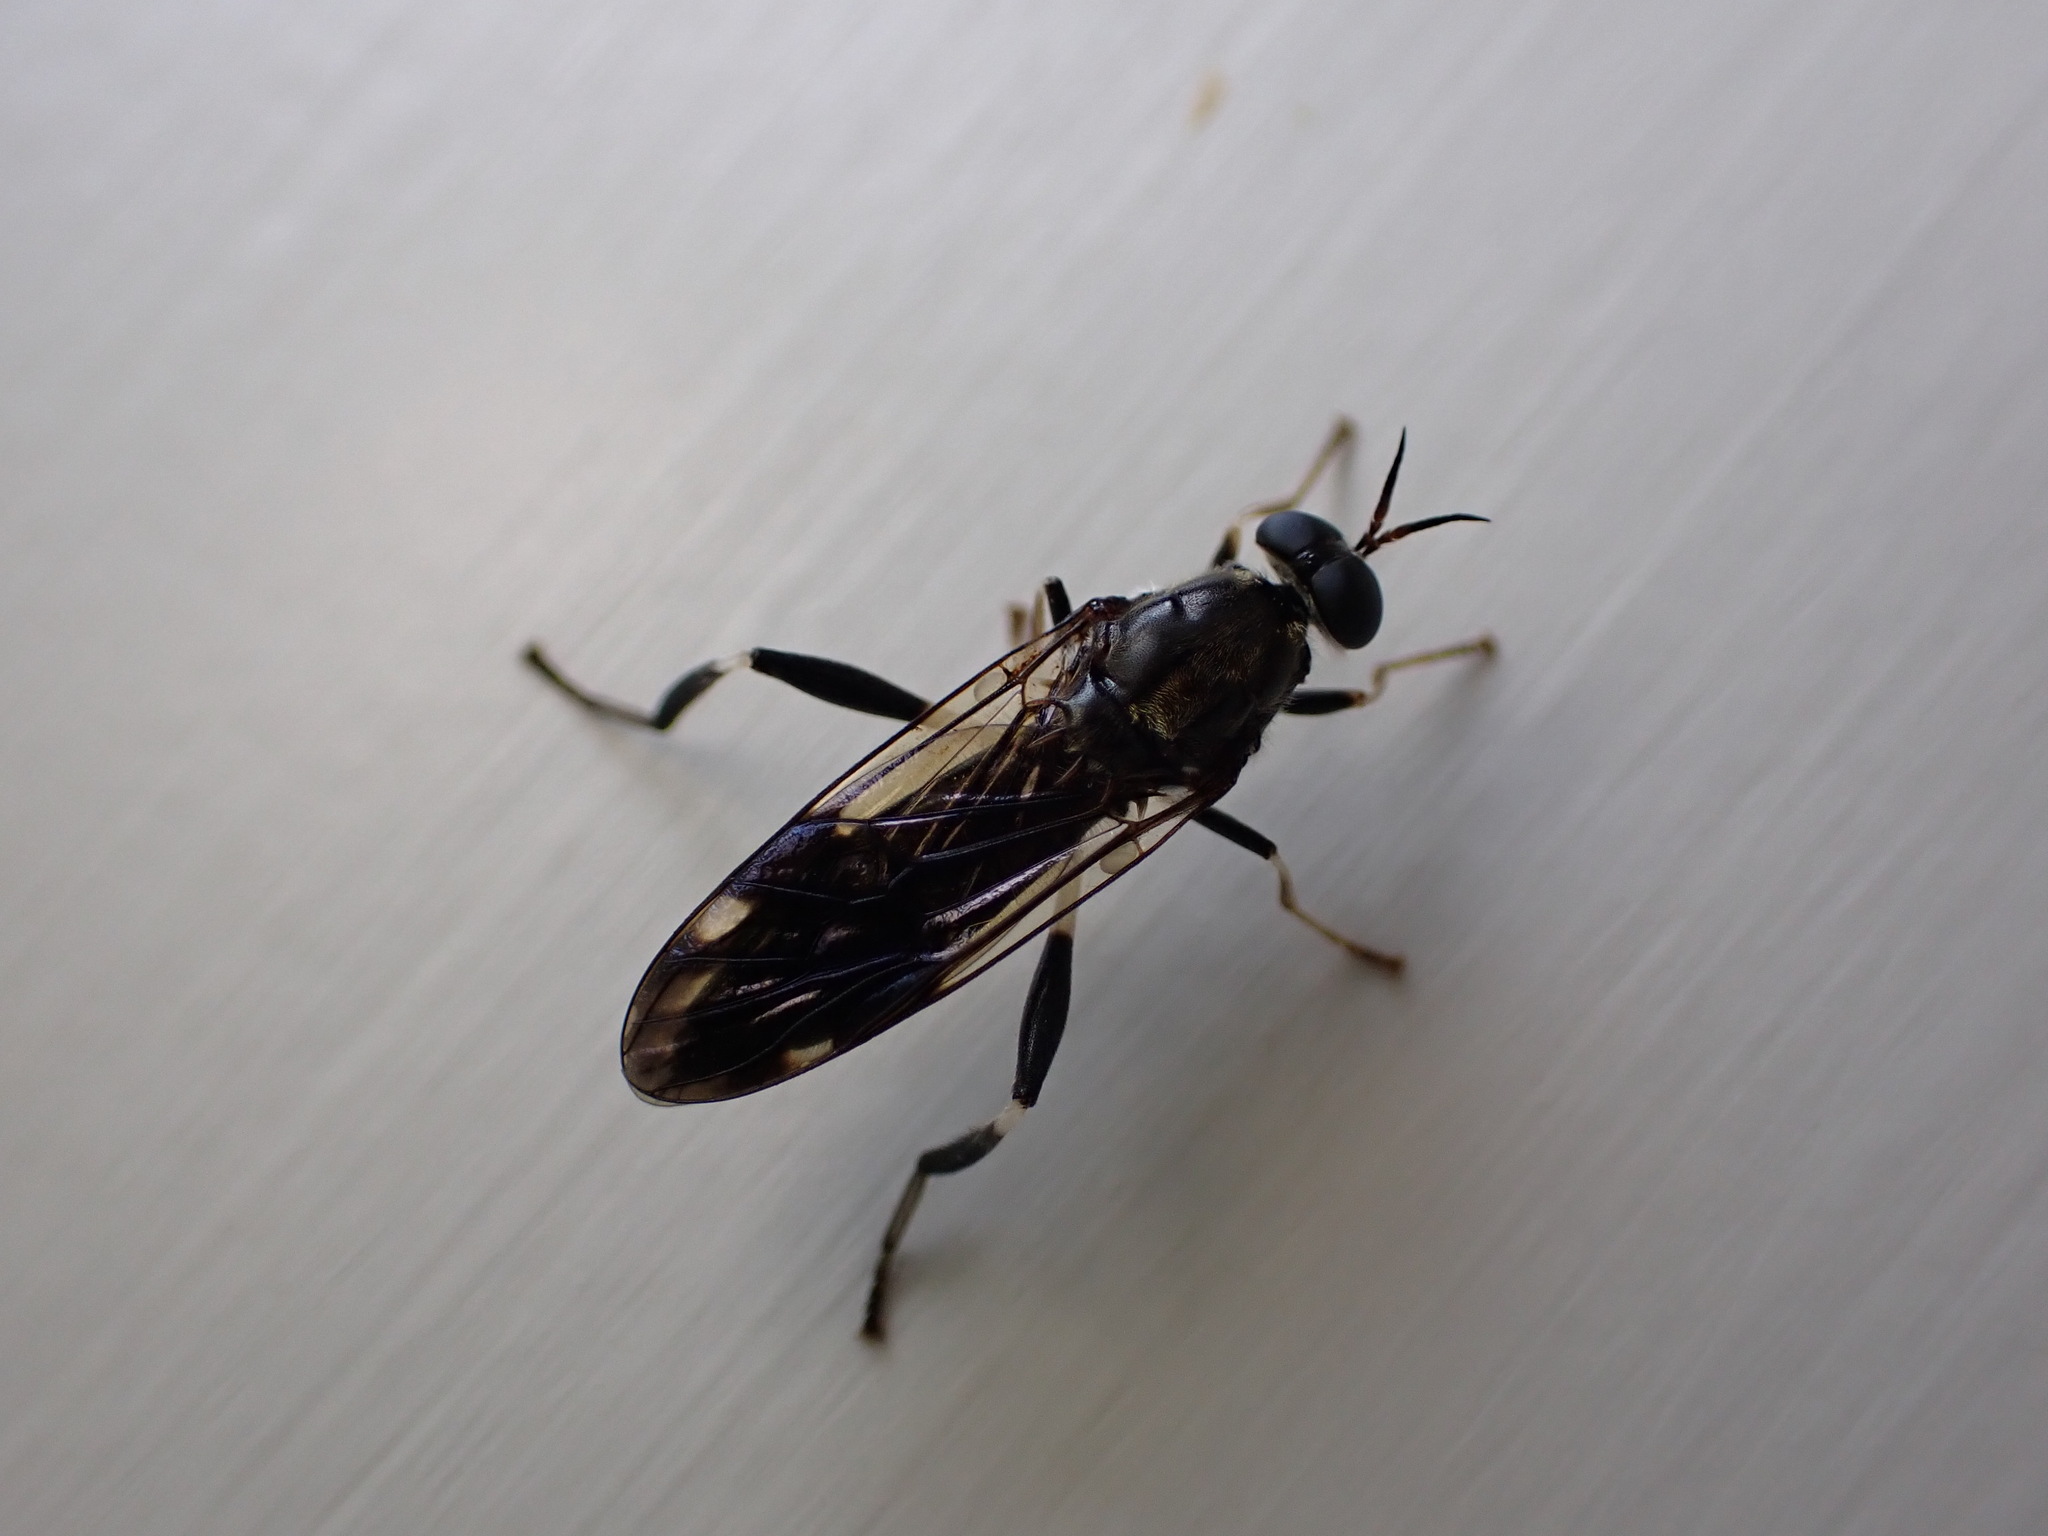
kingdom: Animalia
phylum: Arthropoda
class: Insecta
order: Diptera
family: Stratiomyidae
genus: Exaireta
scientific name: Exaireta spinigera
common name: Blue soldier fly
